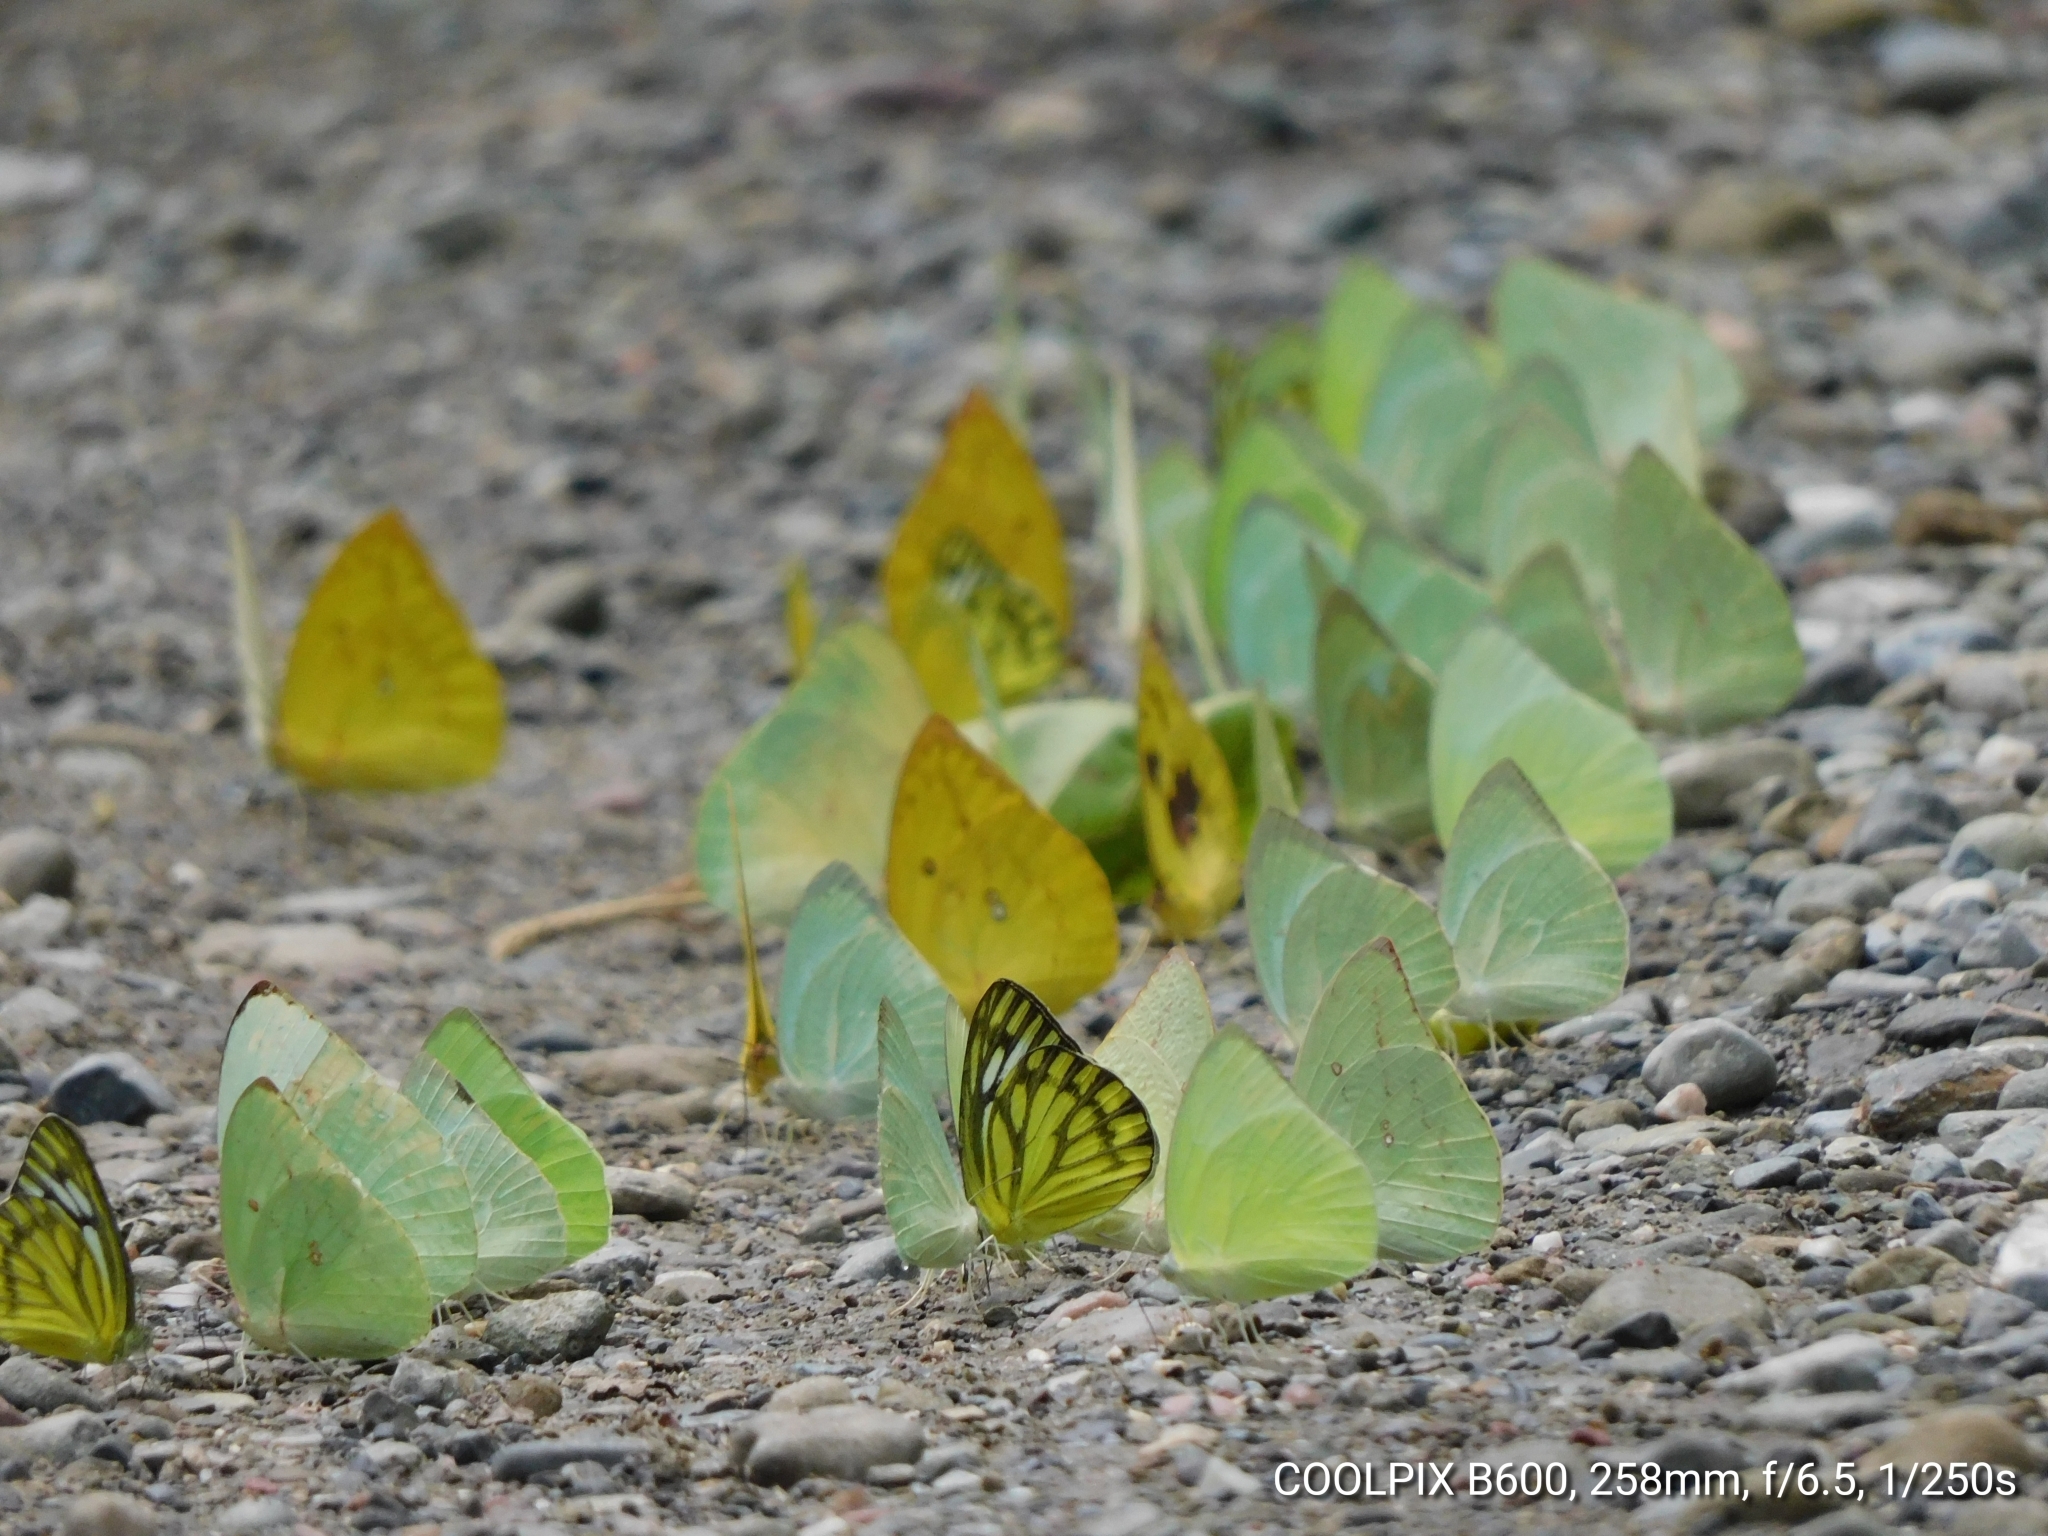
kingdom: Animalia
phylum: Arthropoda
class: Insecta
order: Lepidoptera
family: Pieridae
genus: Cepora
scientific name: Cepora nerissa
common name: Common gull
